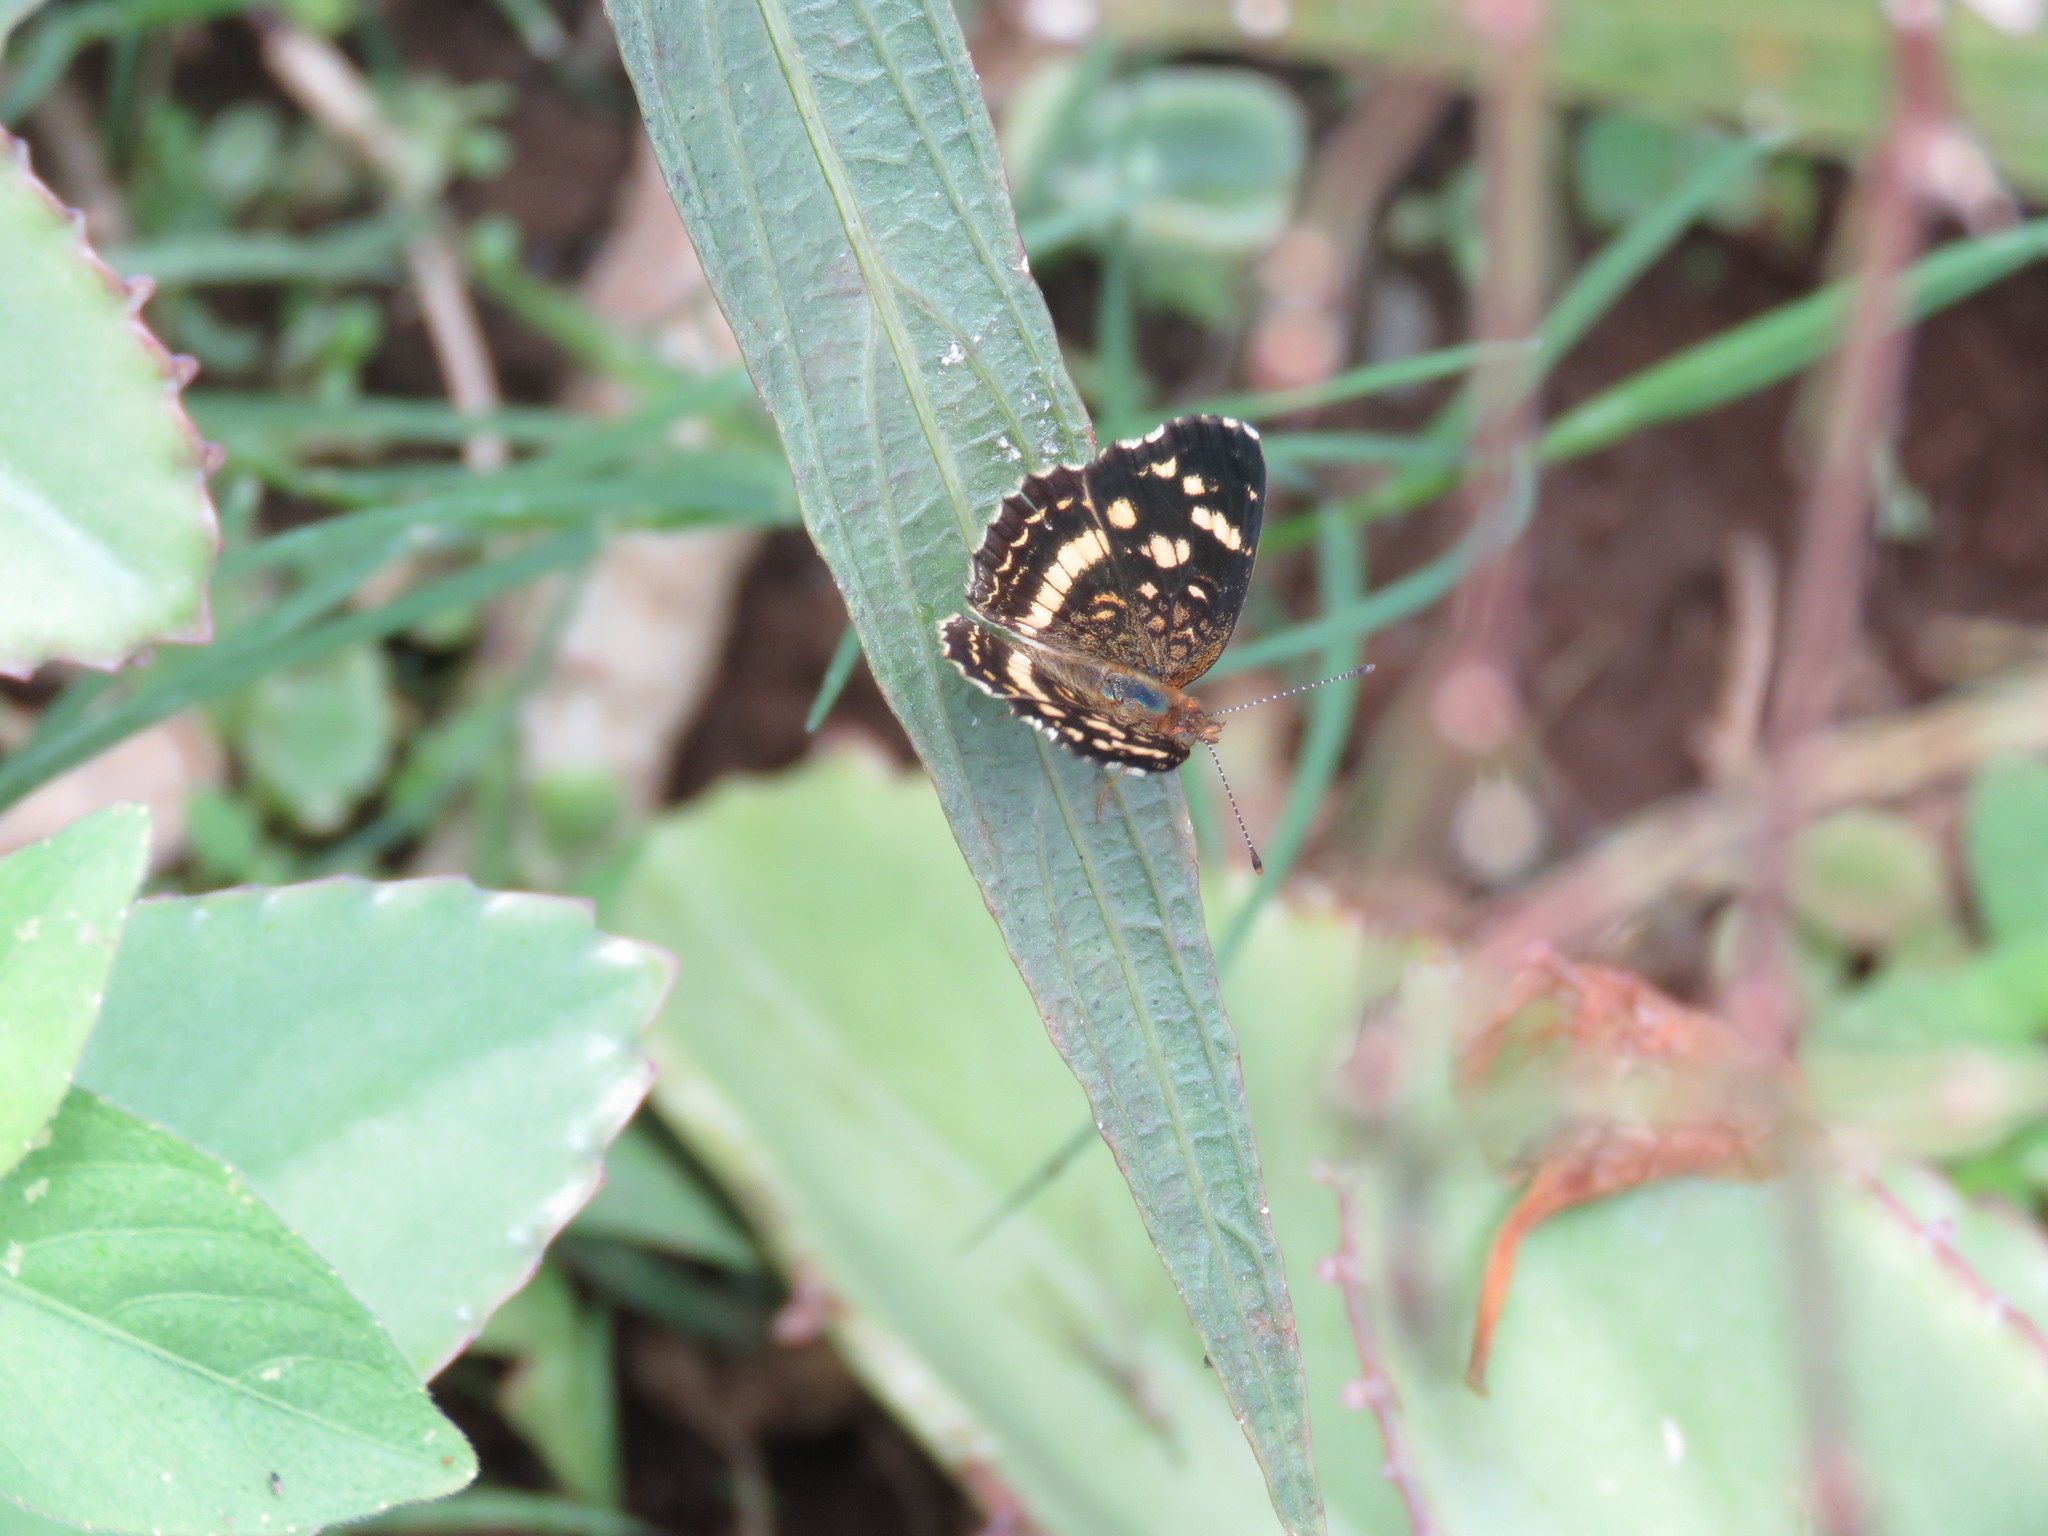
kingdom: Animalia
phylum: Arthropoda
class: Insecta
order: Lepidoptera
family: Nymphalidae
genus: Anthanassa
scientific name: Anthanassa tulcis
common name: Pale-banded crescent
